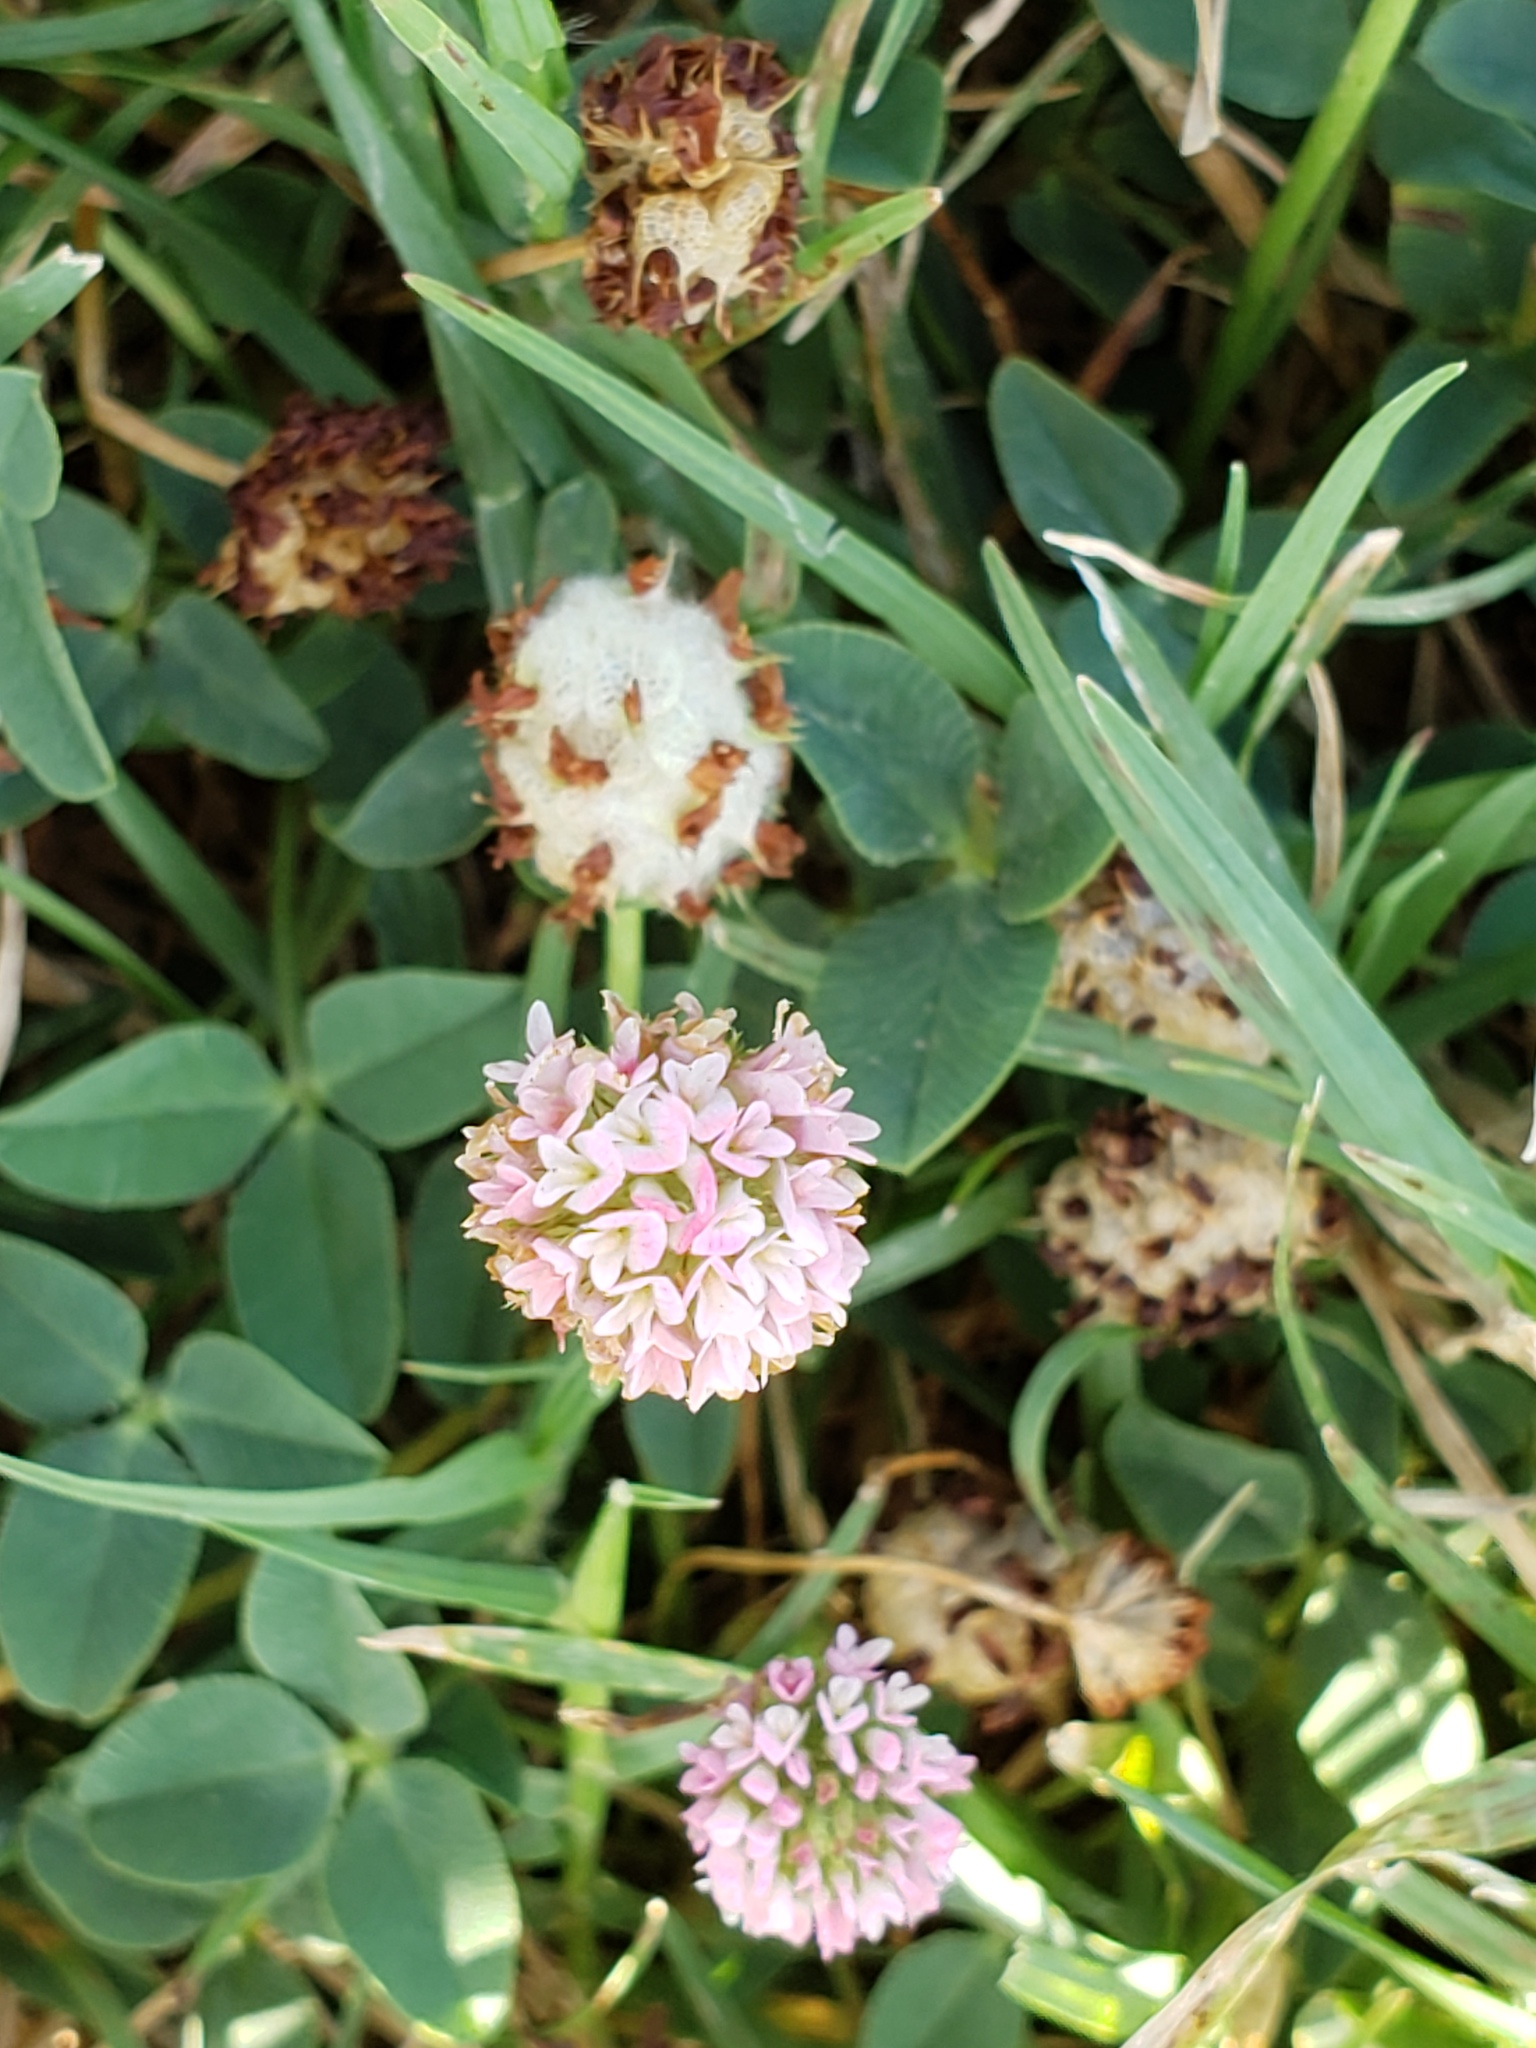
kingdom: Plantae
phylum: Tracheophyta
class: Magnoliopsida
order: Fabales
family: Fabaceae
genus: Trifolium
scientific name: Trifolium fragiferum
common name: Strawberry clover
